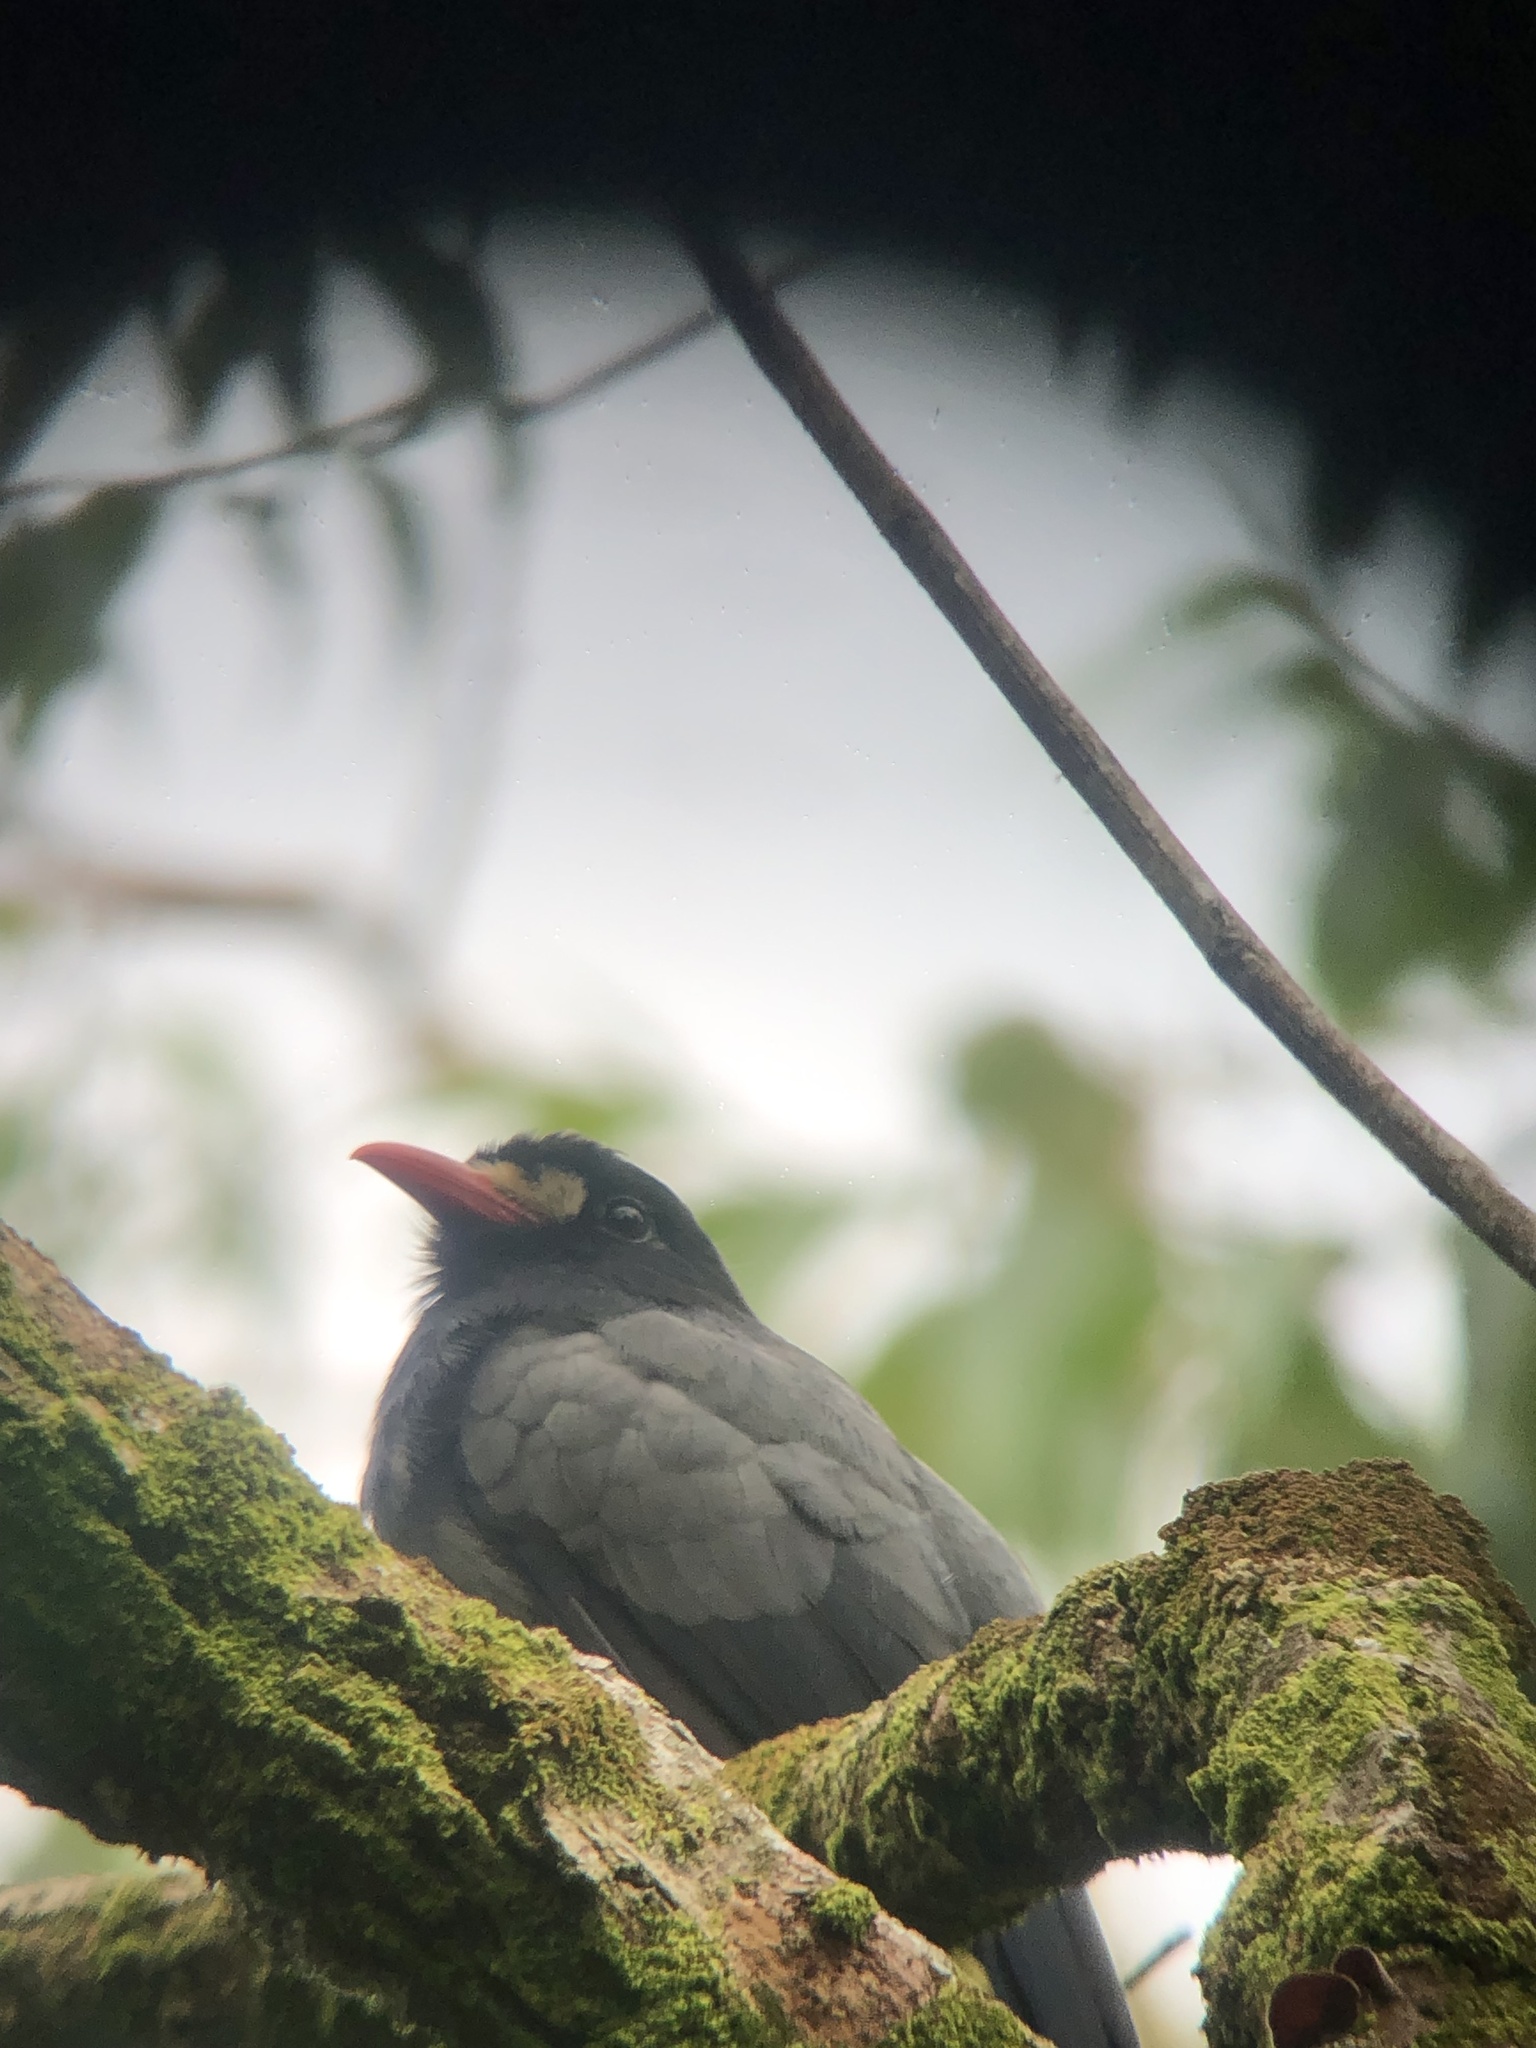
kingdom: Animalia
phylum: Chordata
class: Aves
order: Piciformes
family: Bucconidae
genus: Monasa
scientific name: Monasa morphoeus
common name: White-fronted nunbird
